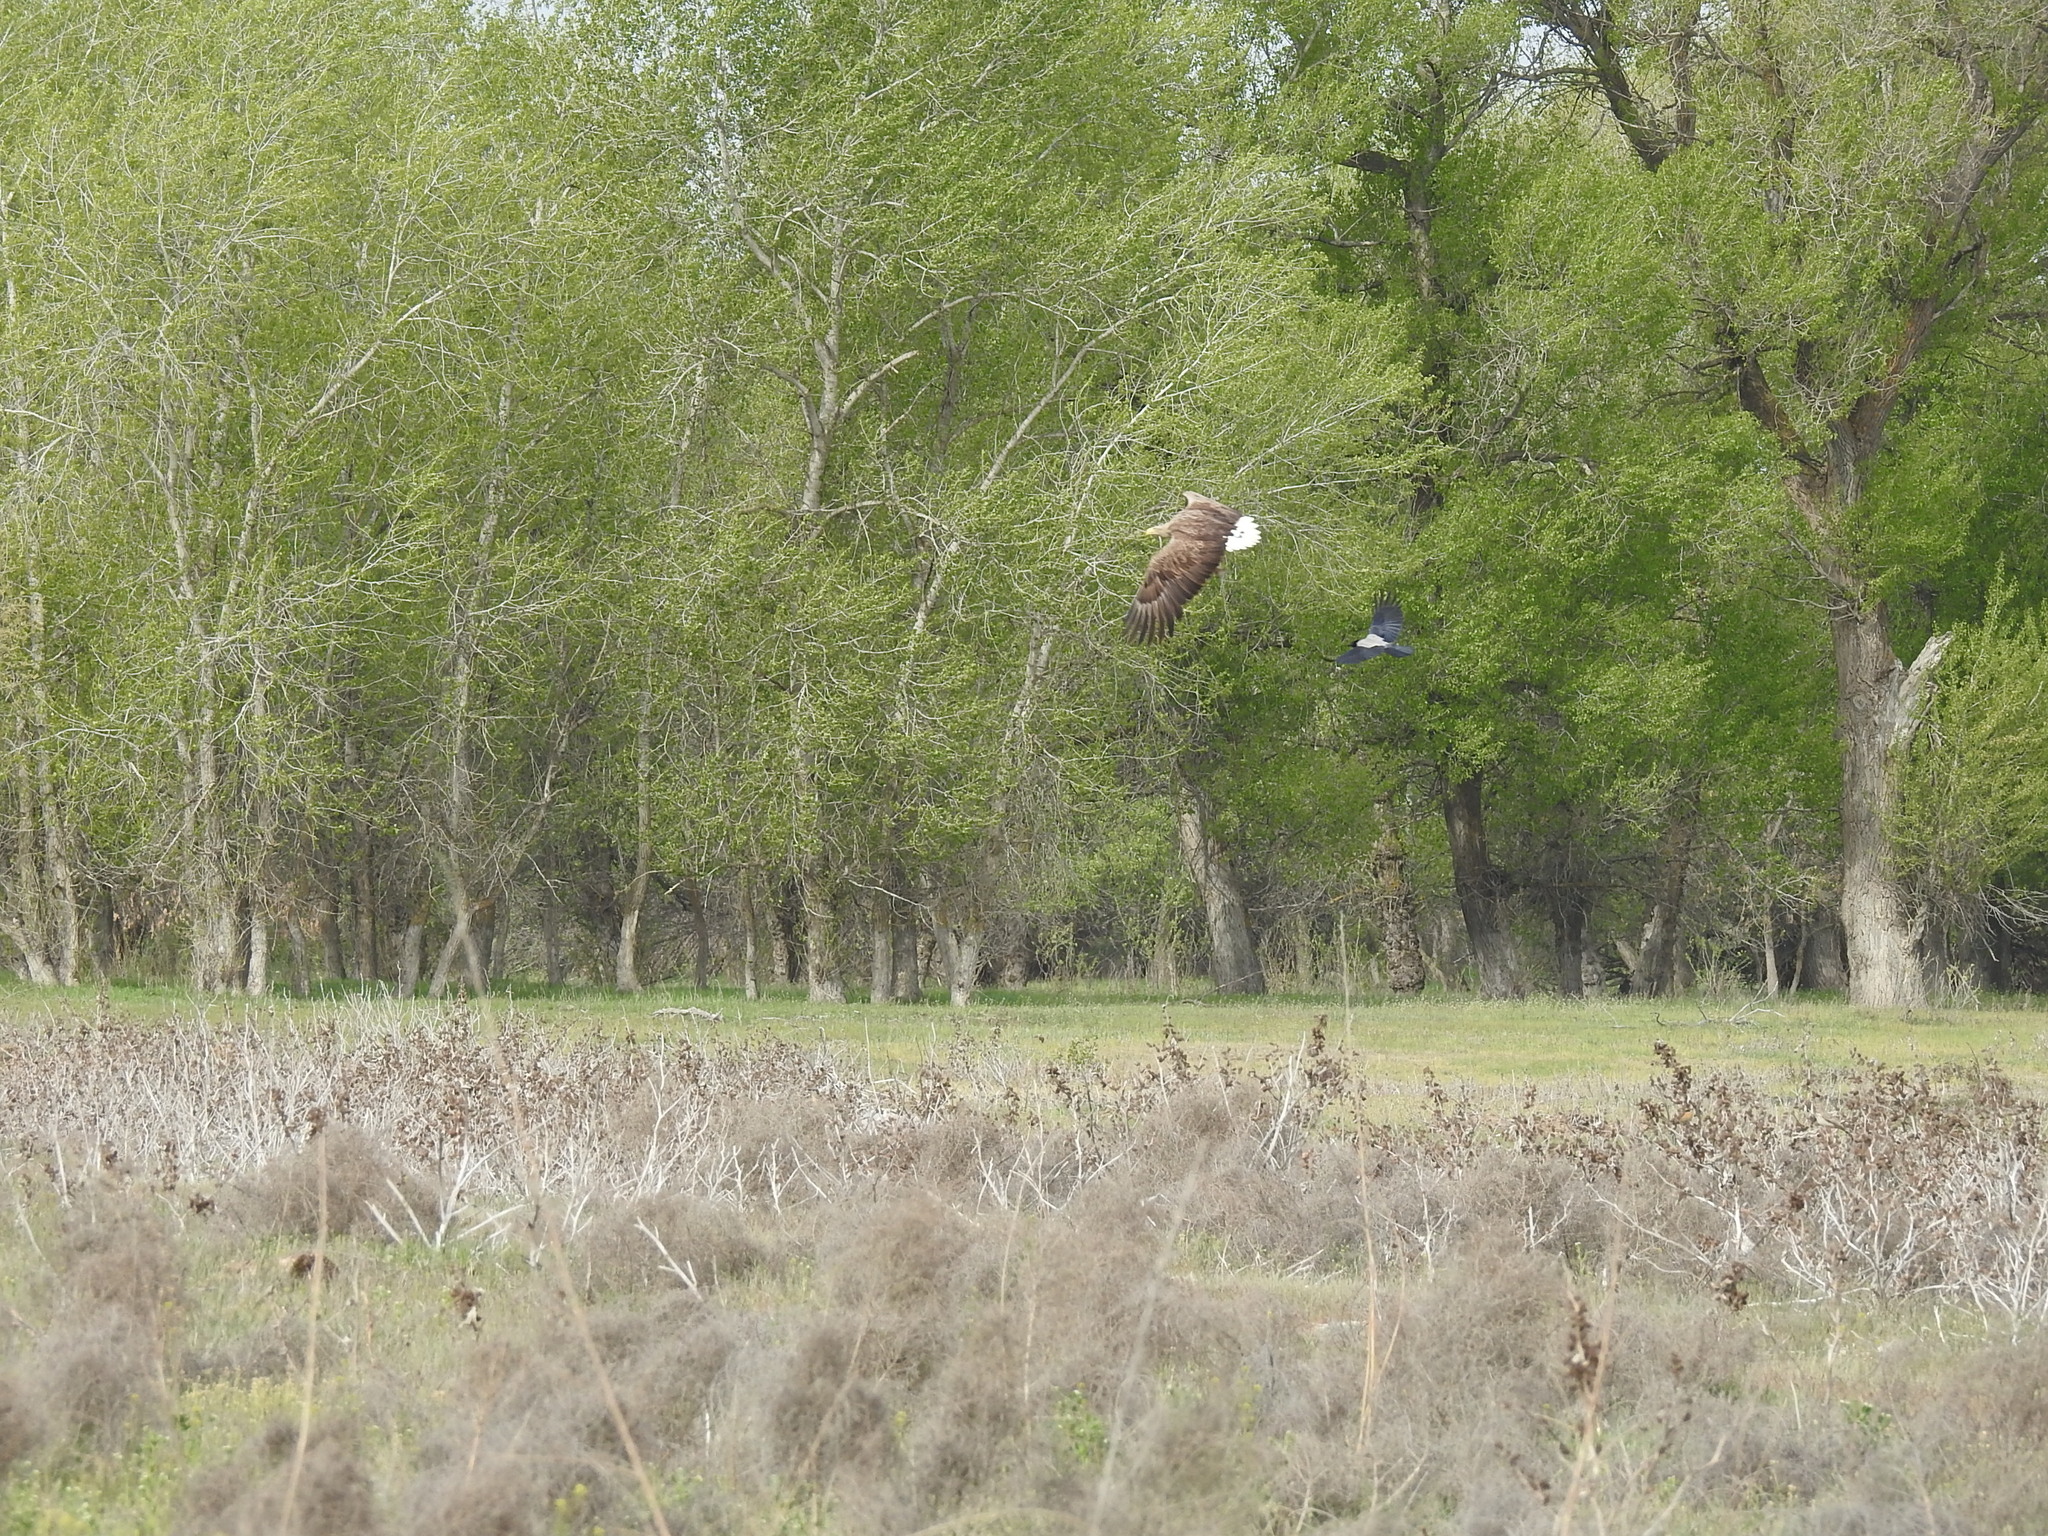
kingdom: Animalia
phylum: Chordata
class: Aves
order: Accipitriformes
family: Accipitridae
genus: Haliaeetus
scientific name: Haliaeetus albicilla
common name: White-tailed eagle
